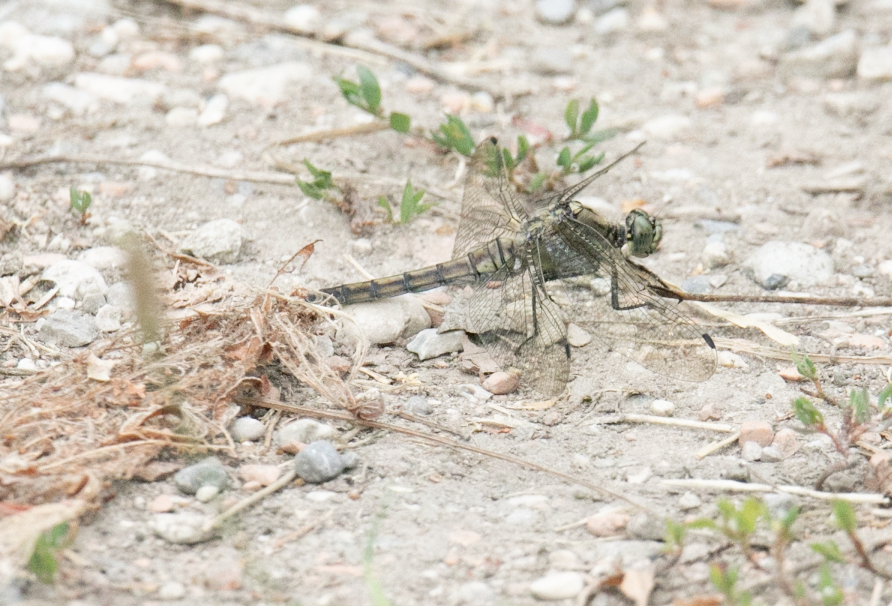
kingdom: Animalia
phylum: Arthropoda
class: Insecta
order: Odonata
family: Libellulidae
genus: Orthetrum
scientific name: Orthetrum cancellatum
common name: Black-tailed skimmer
